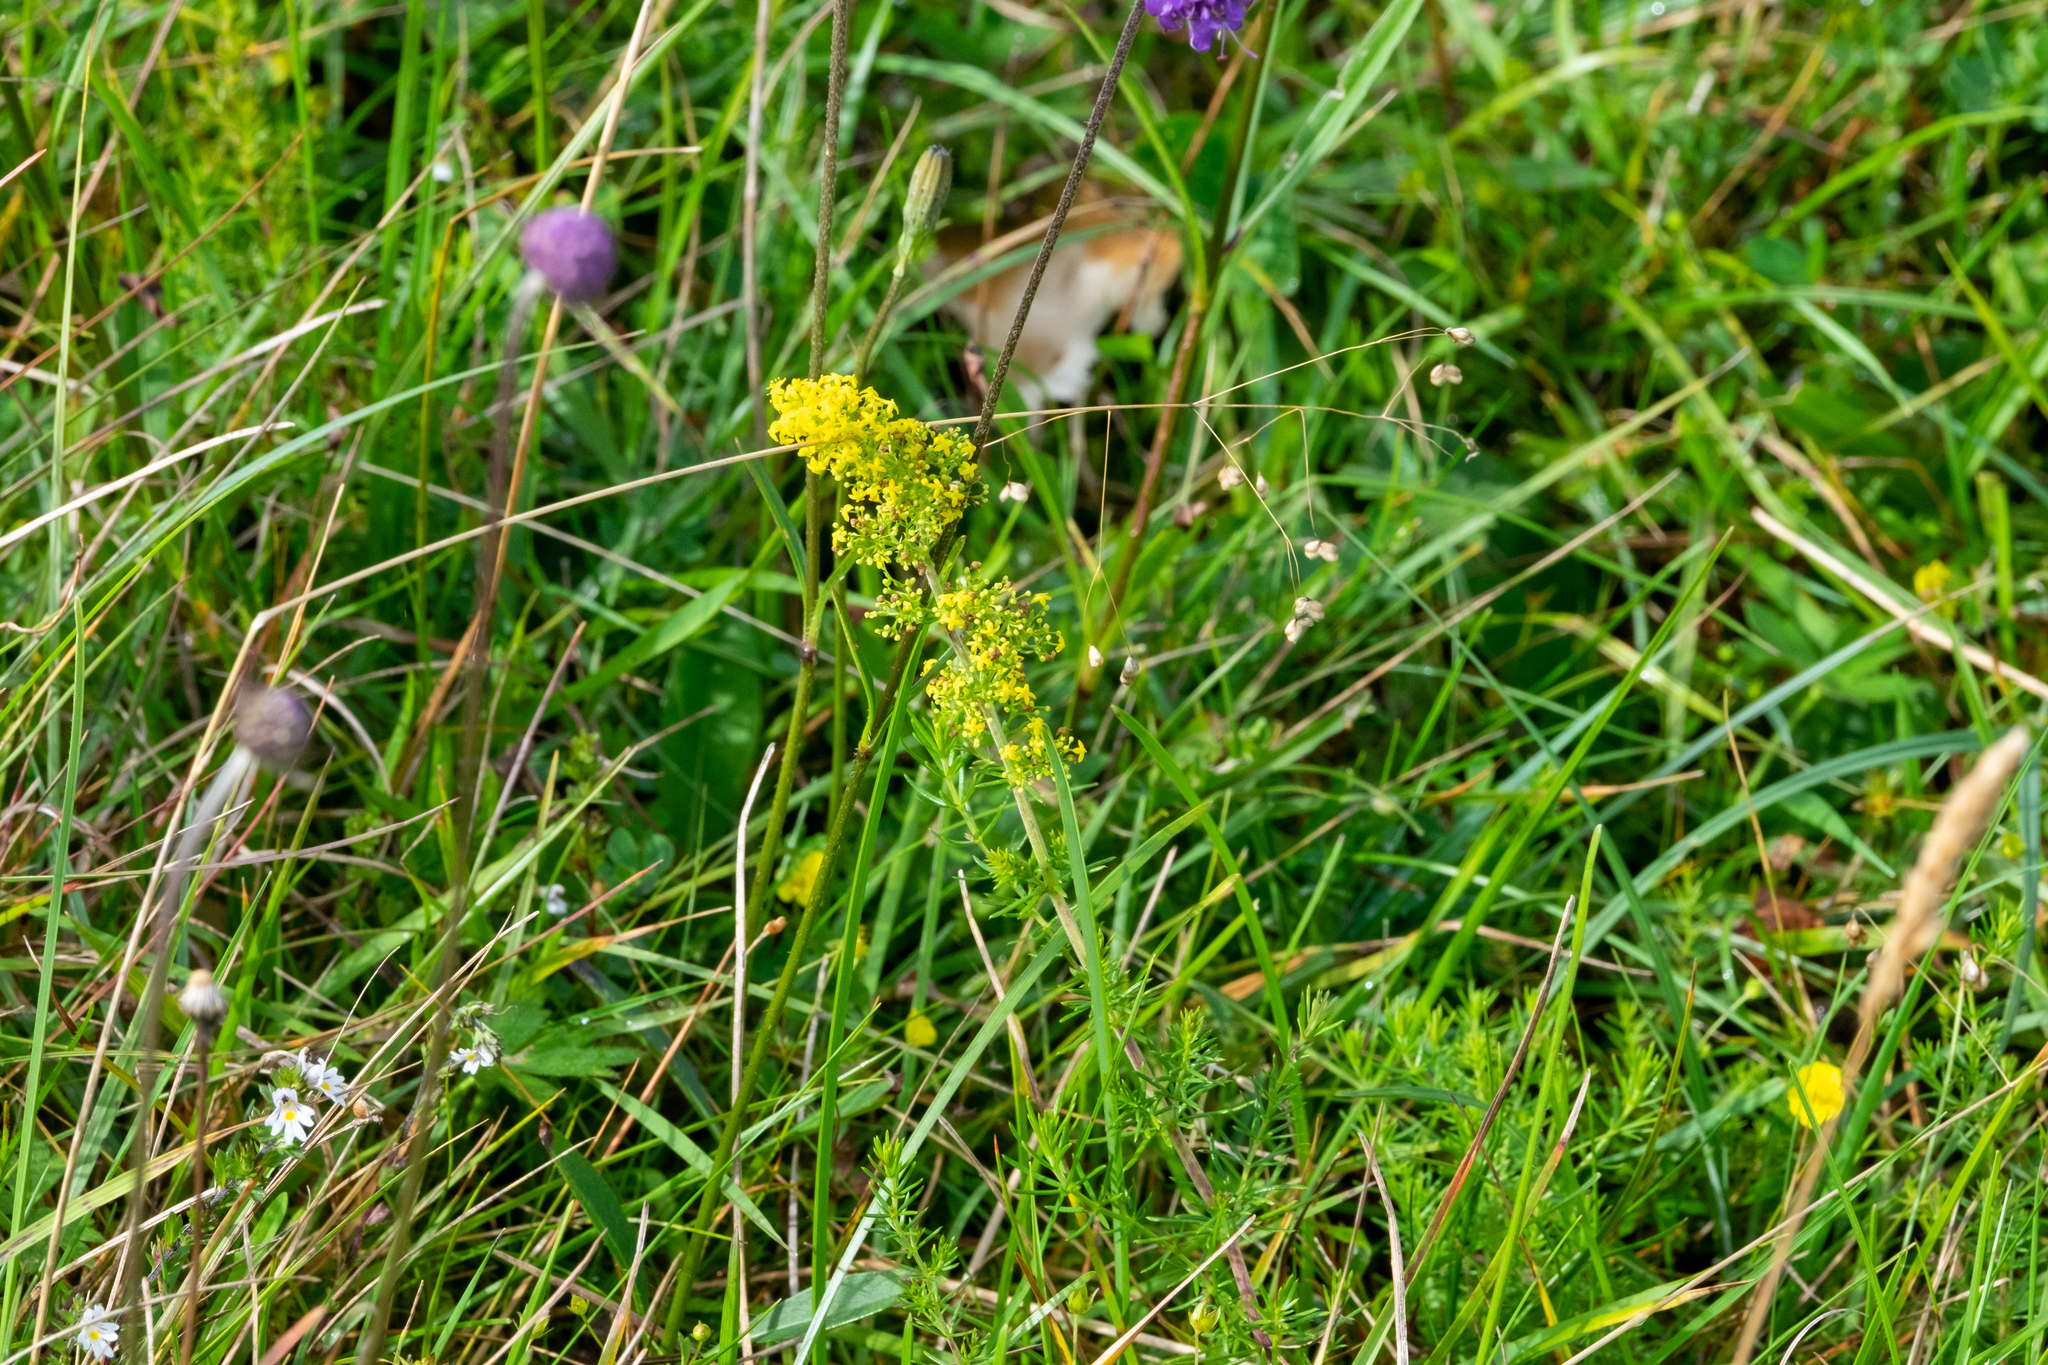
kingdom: Plantae
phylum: Tracheophyta
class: Magnoliopsida
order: Gentianales
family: Rubiaceae
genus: Galium
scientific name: Galium verum
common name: Lady's bedstraw
